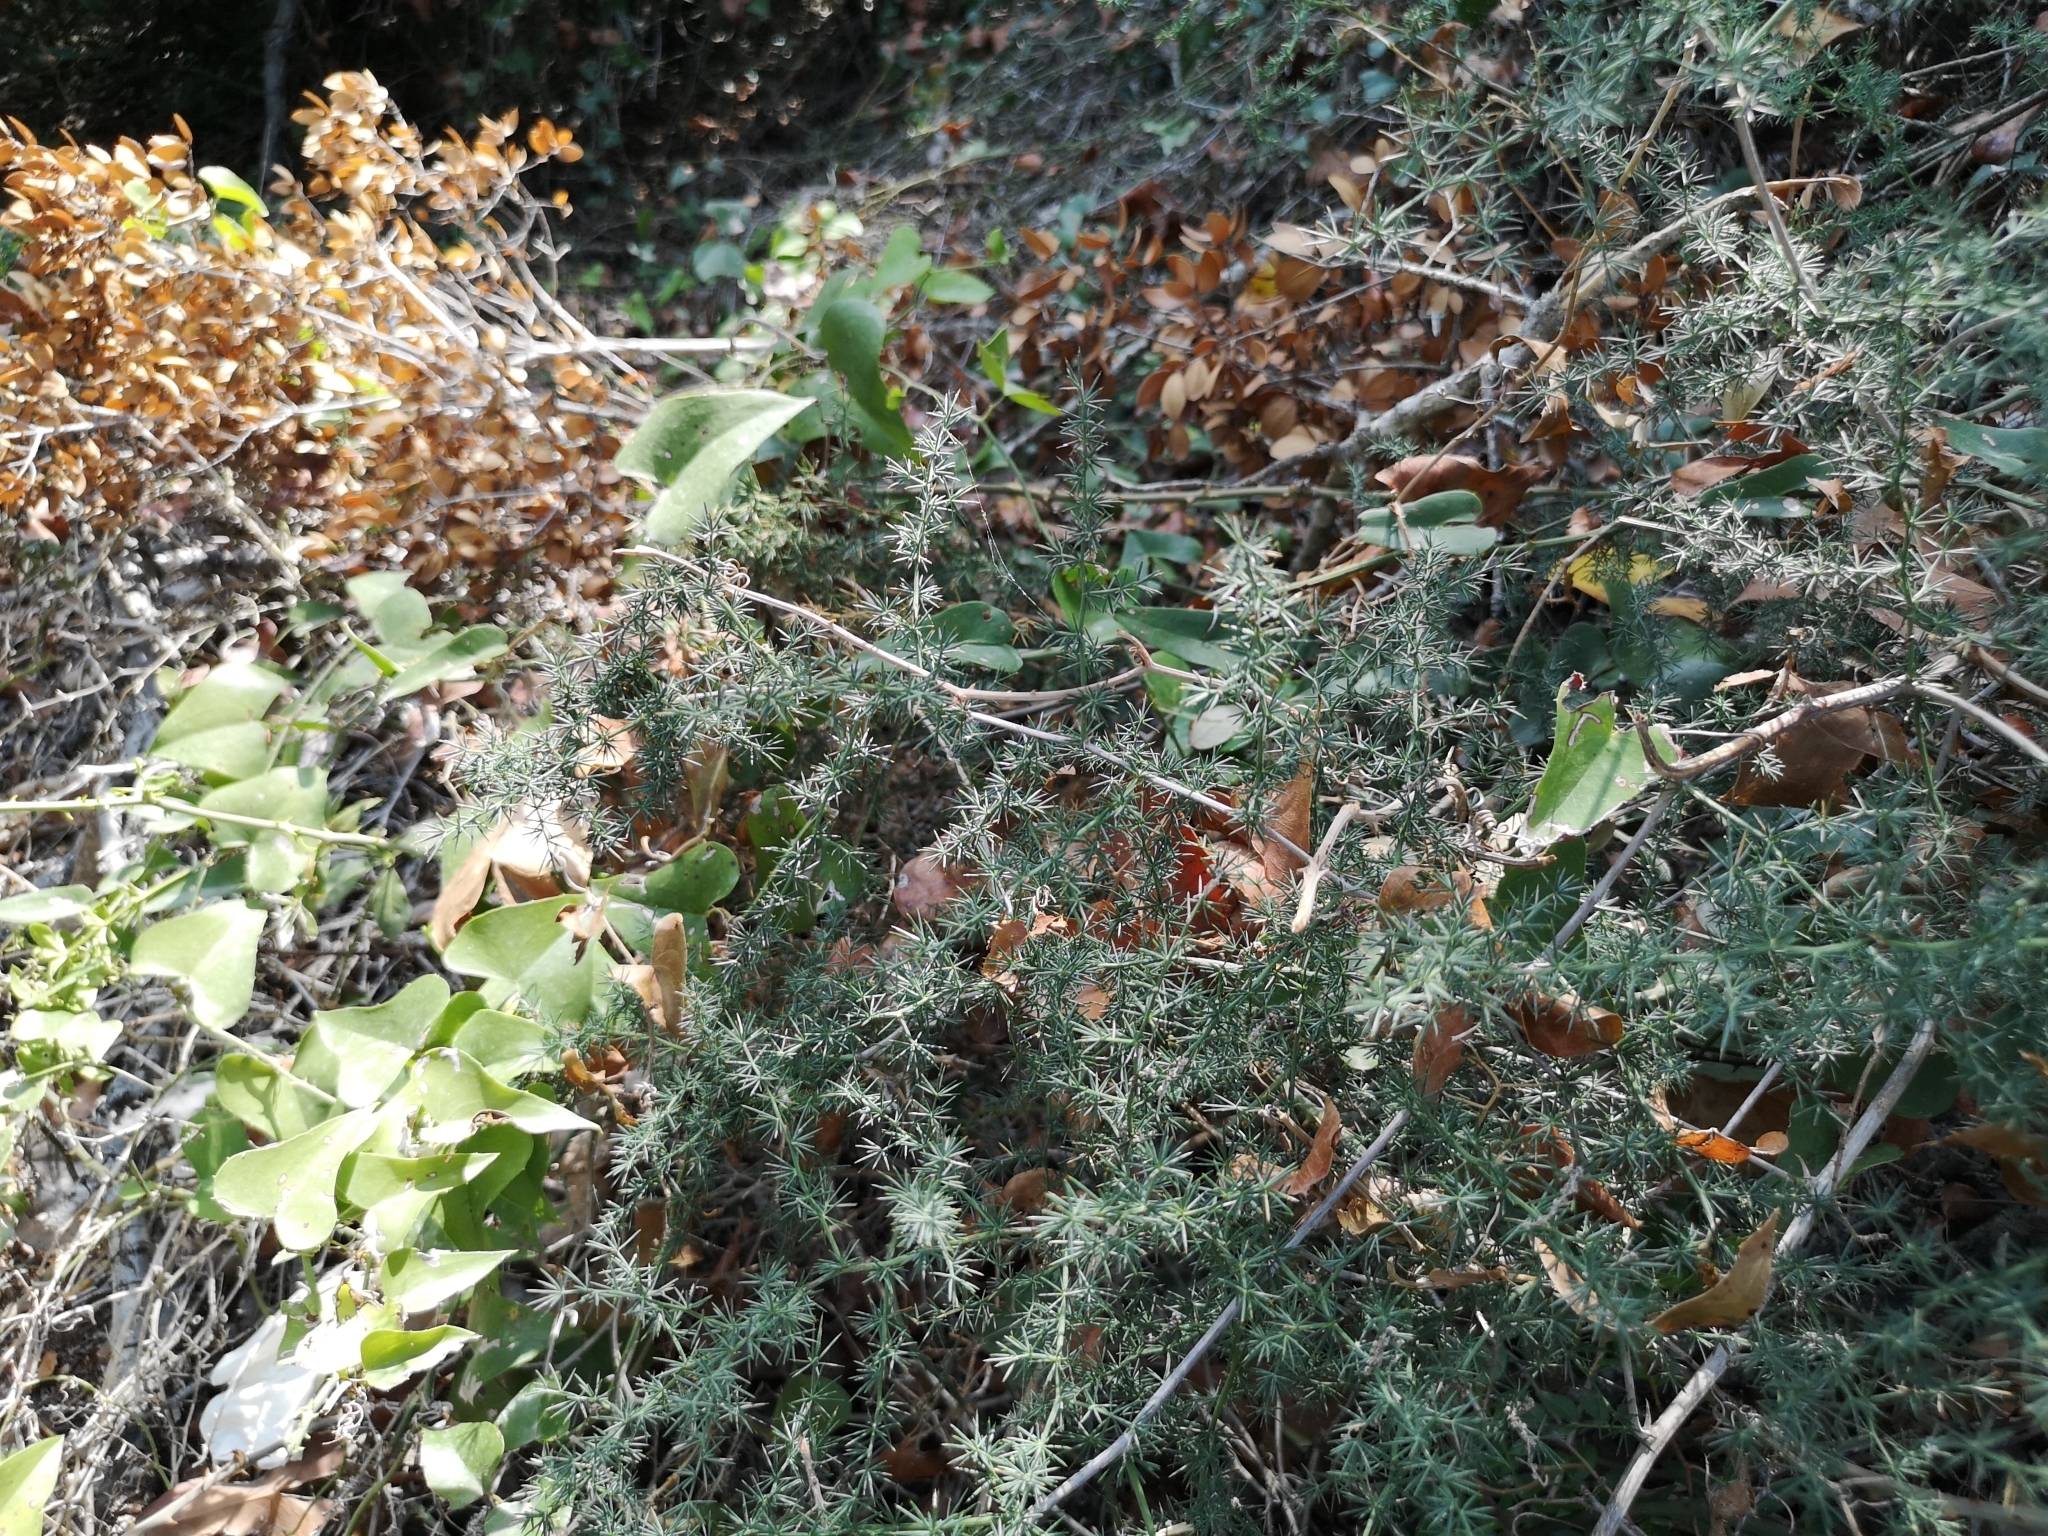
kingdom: Plantae
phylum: Tracheophyta
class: Liliopsida
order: Asparagales
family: Asparagaceae
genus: Asparagus
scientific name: Asparagus acutifolius
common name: Wild asparagus
